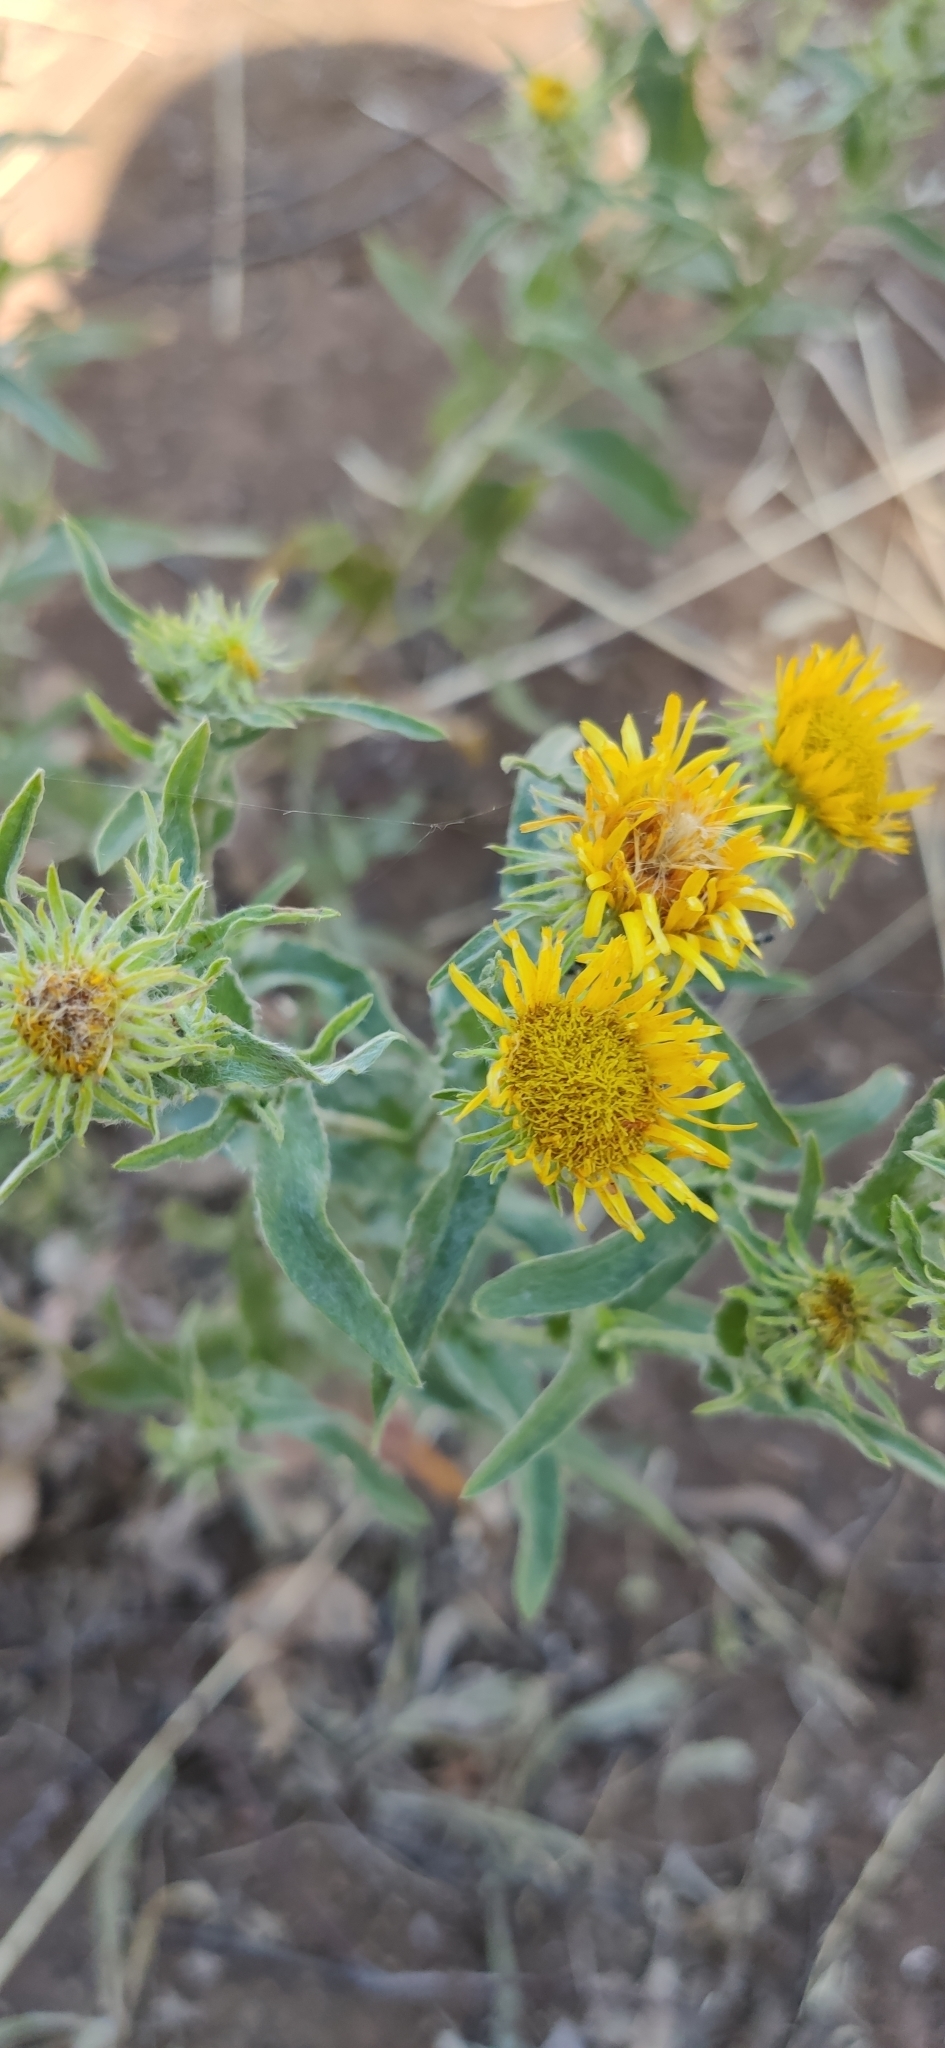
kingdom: Plantae
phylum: Tracheophyta
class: Magnoliopsida
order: Asterales
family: Asteraceae
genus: Pentanema
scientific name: Pentanema britannicum
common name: British elecampane
